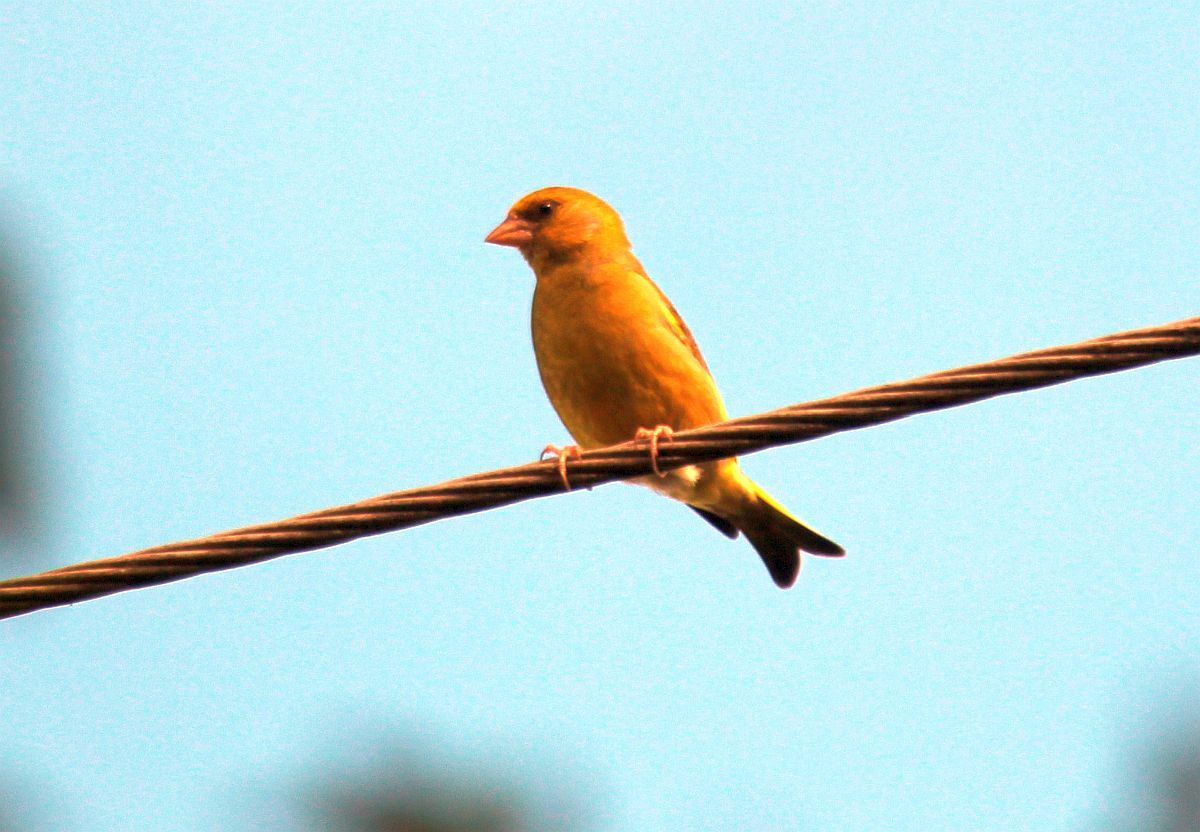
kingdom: Plantae
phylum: Tracheophyta
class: Liliopsida
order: Poales
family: Poaceae
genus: Chloris
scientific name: Chloris chloris
